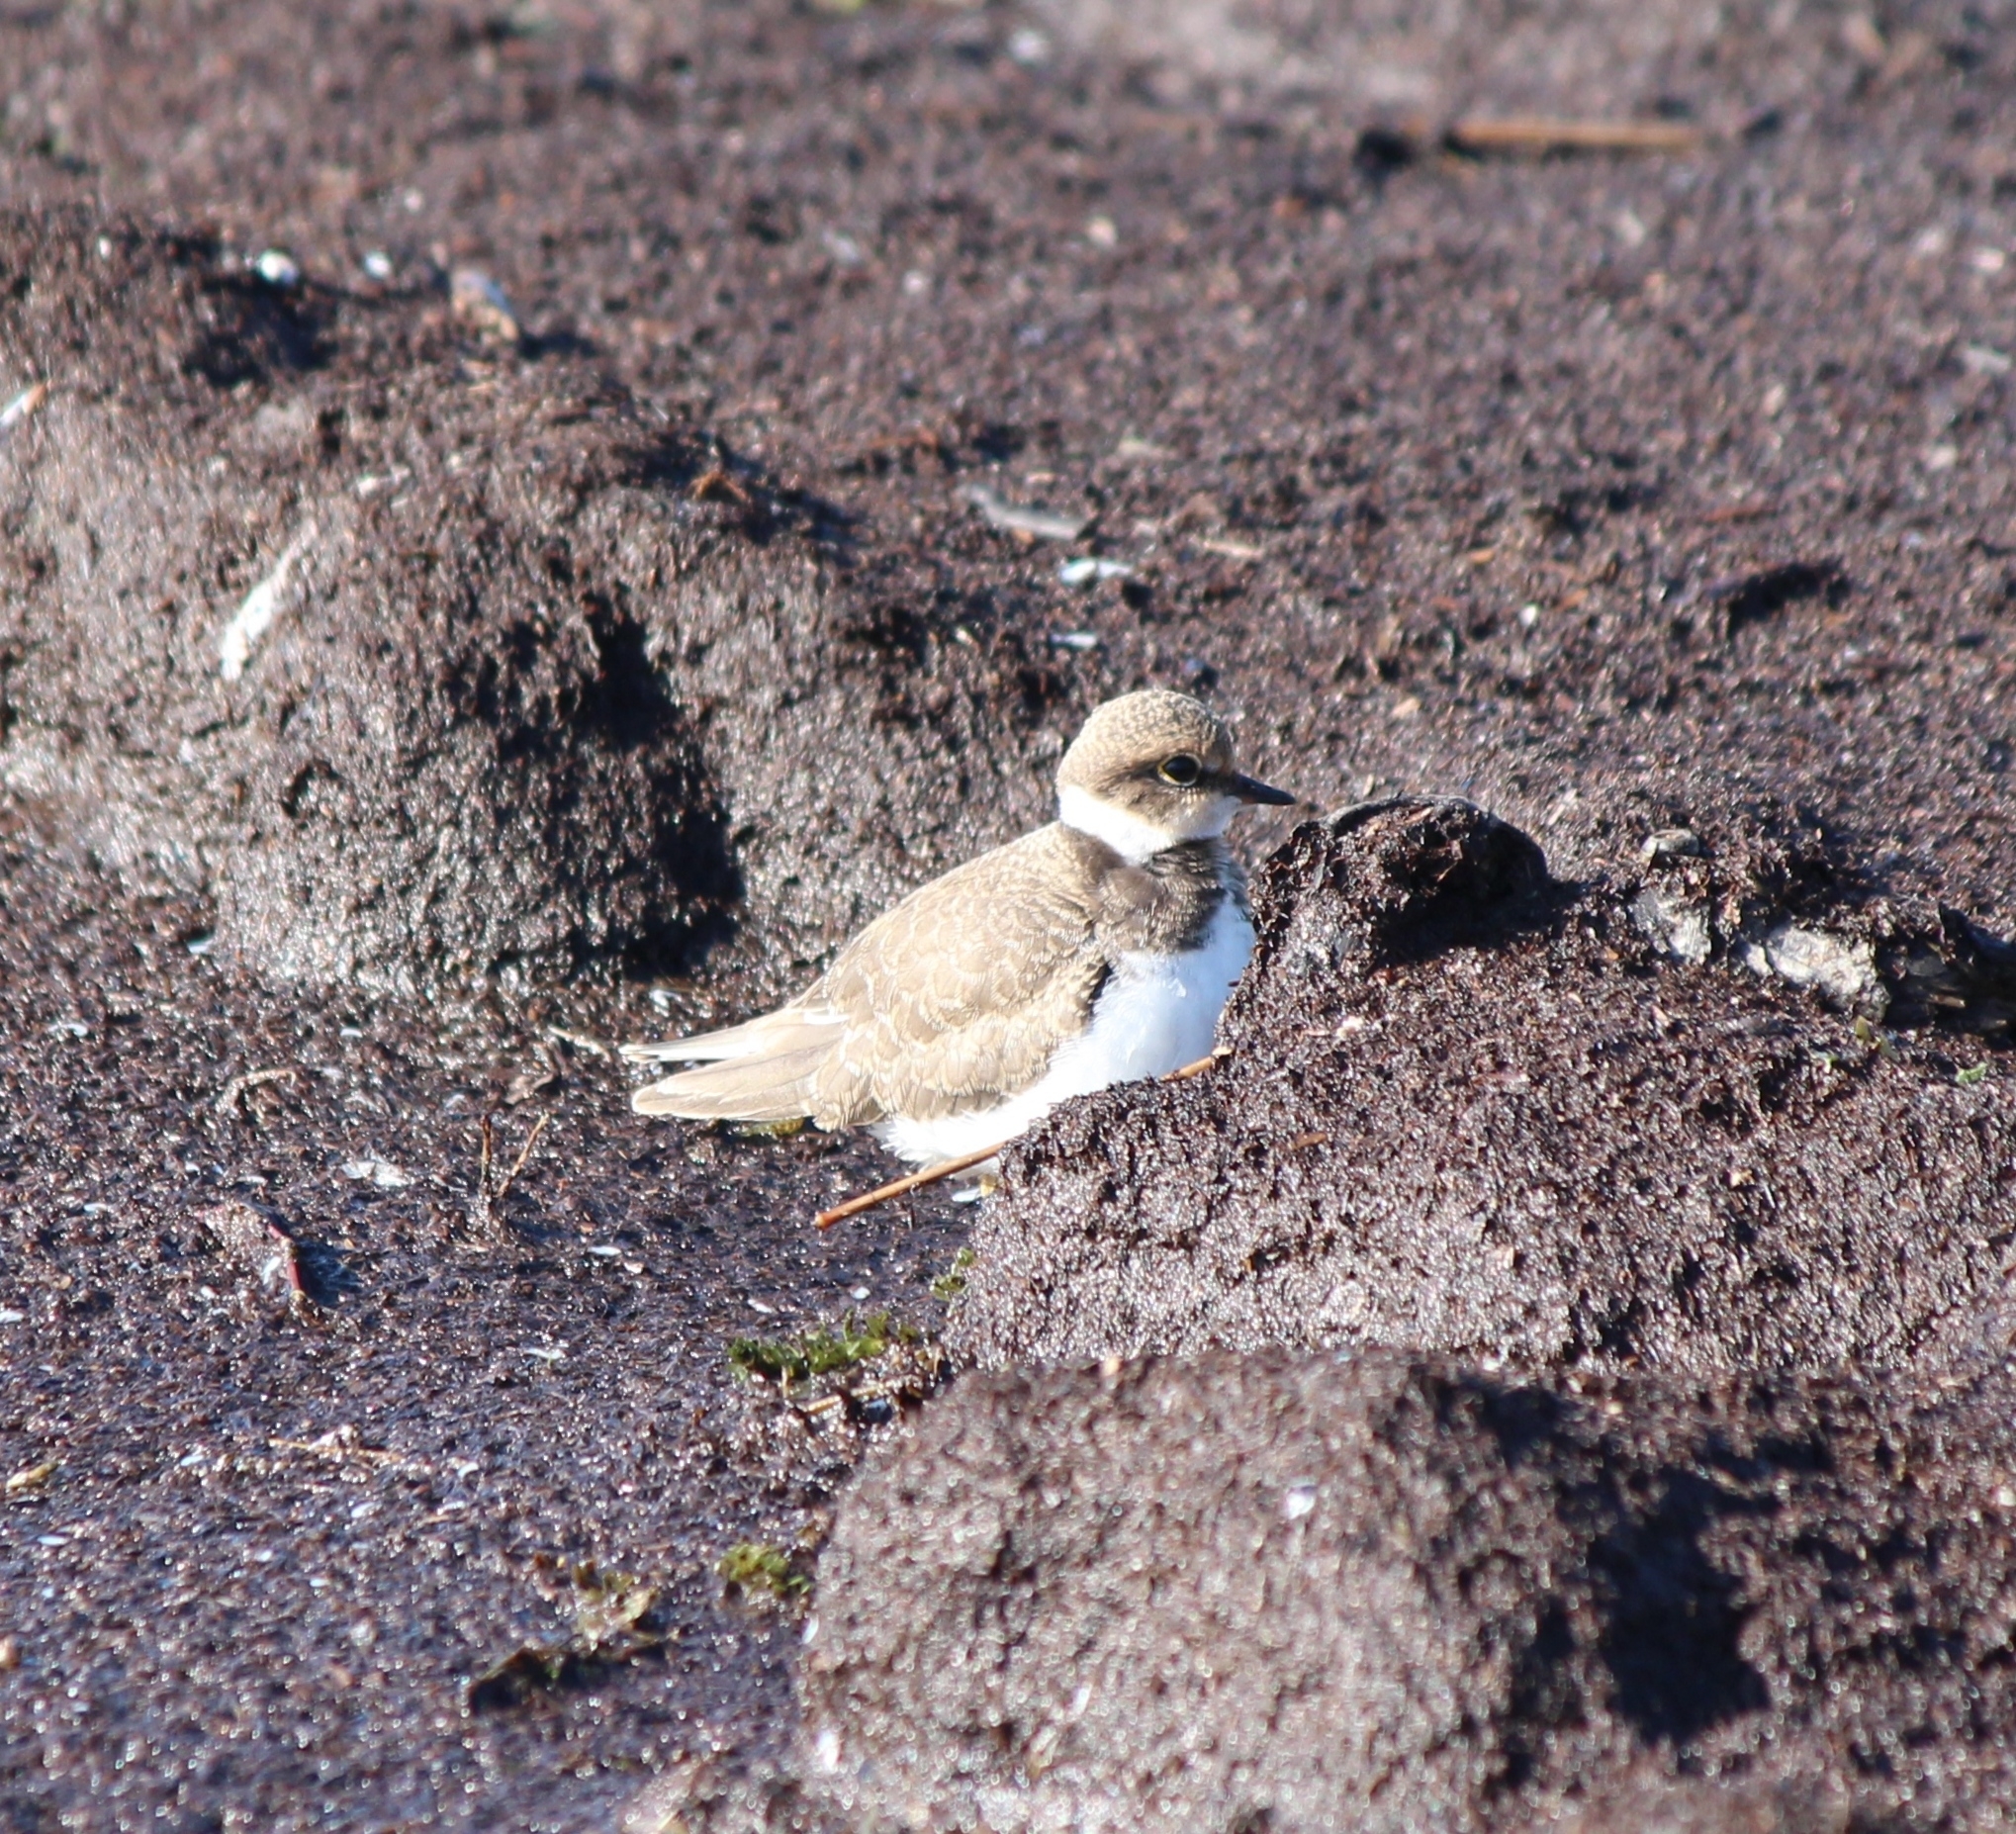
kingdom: Animalia
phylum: Chordata
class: Aves
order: Charadriiformes
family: Charadriidae
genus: Charadrius
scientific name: Charadrius dubius
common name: Little ringed plover
